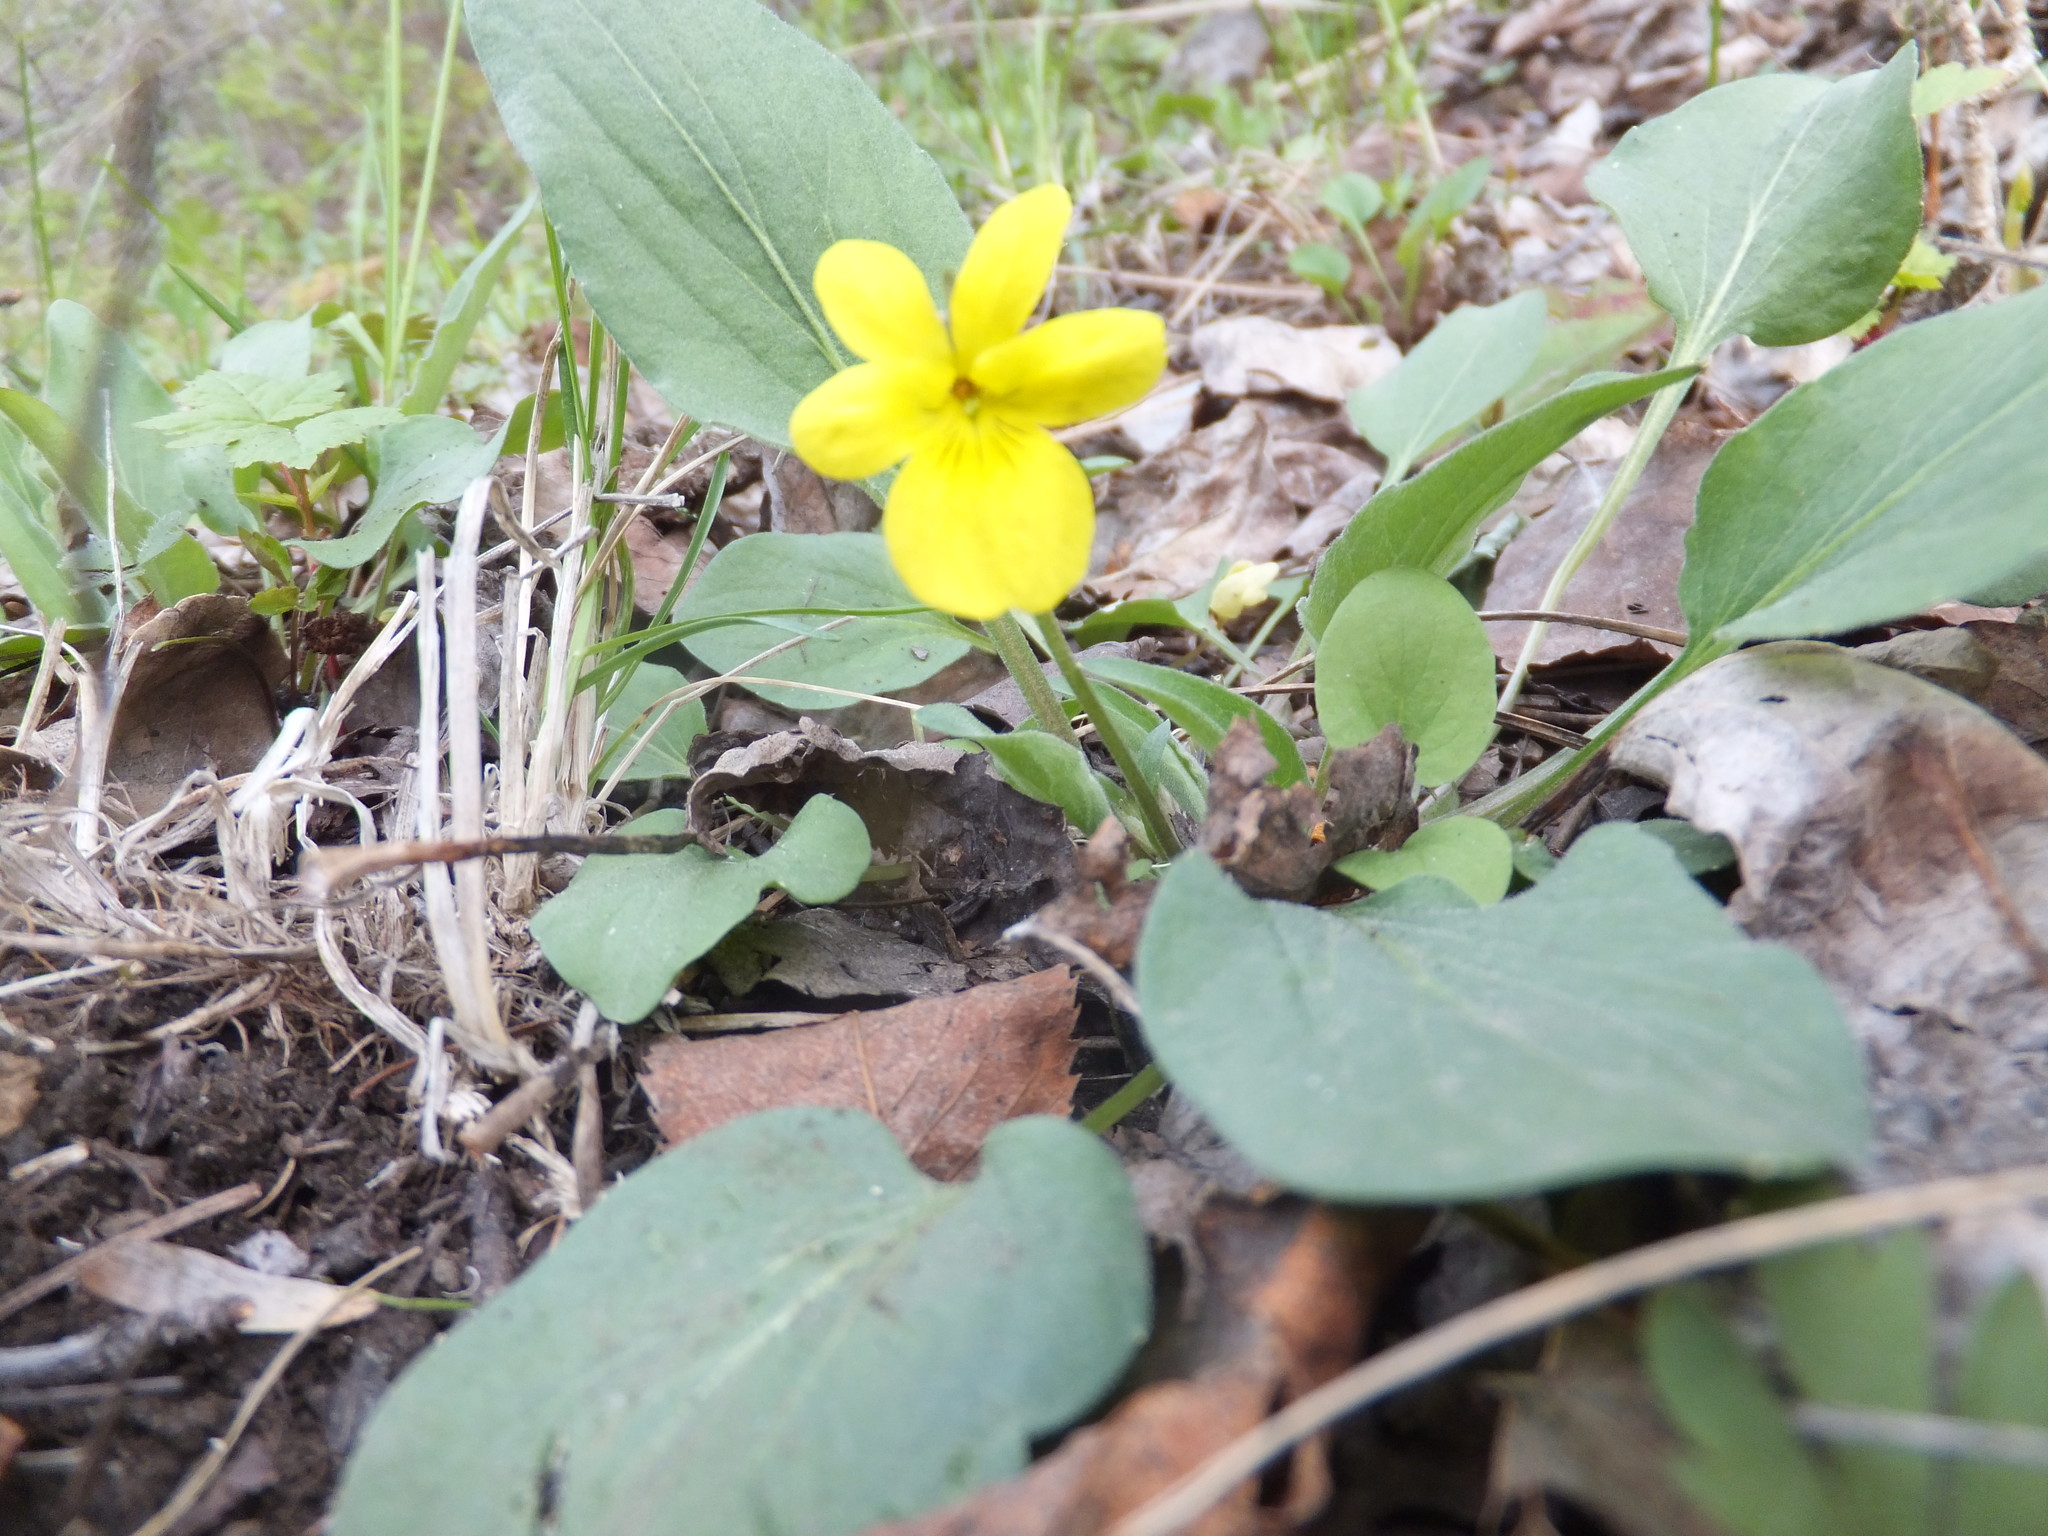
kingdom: Plantae
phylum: Tracheophyta
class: Magnoliopsida
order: Malpighiales
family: Violaceae
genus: Viola
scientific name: Viola vallicola
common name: Valley violet
